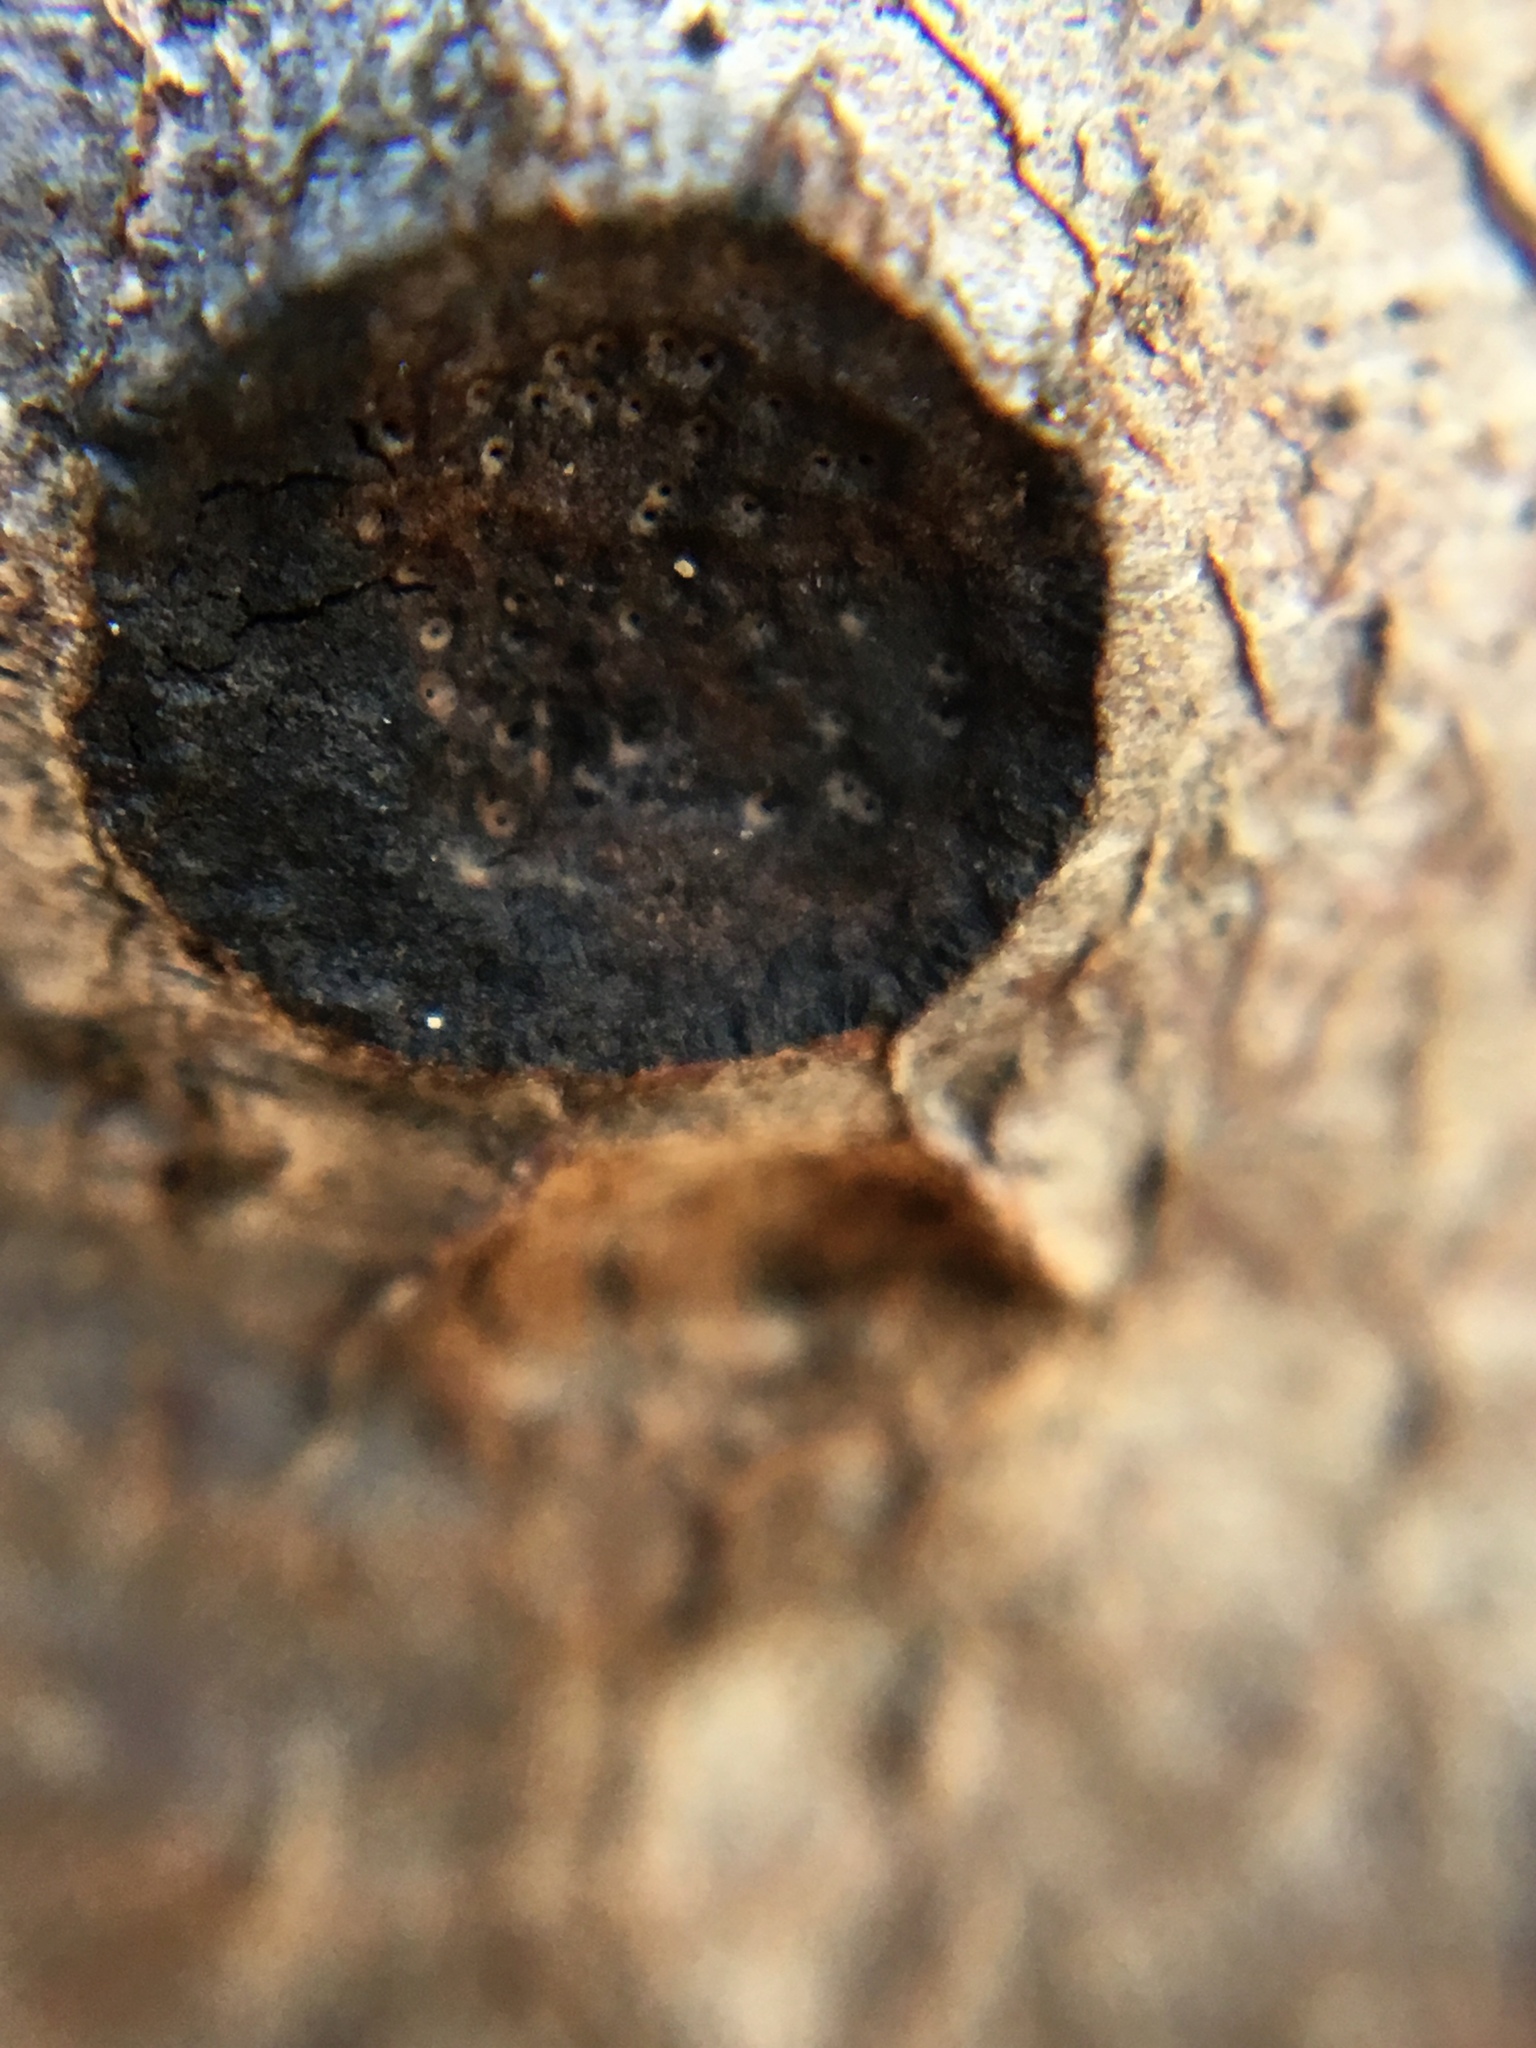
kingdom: Fungi
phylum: Ascomycota
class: Sordariomycetes
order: Xylariales
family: Graphostromataceae
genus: Biscogniauxia
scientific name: Biscogniauxia marginata
